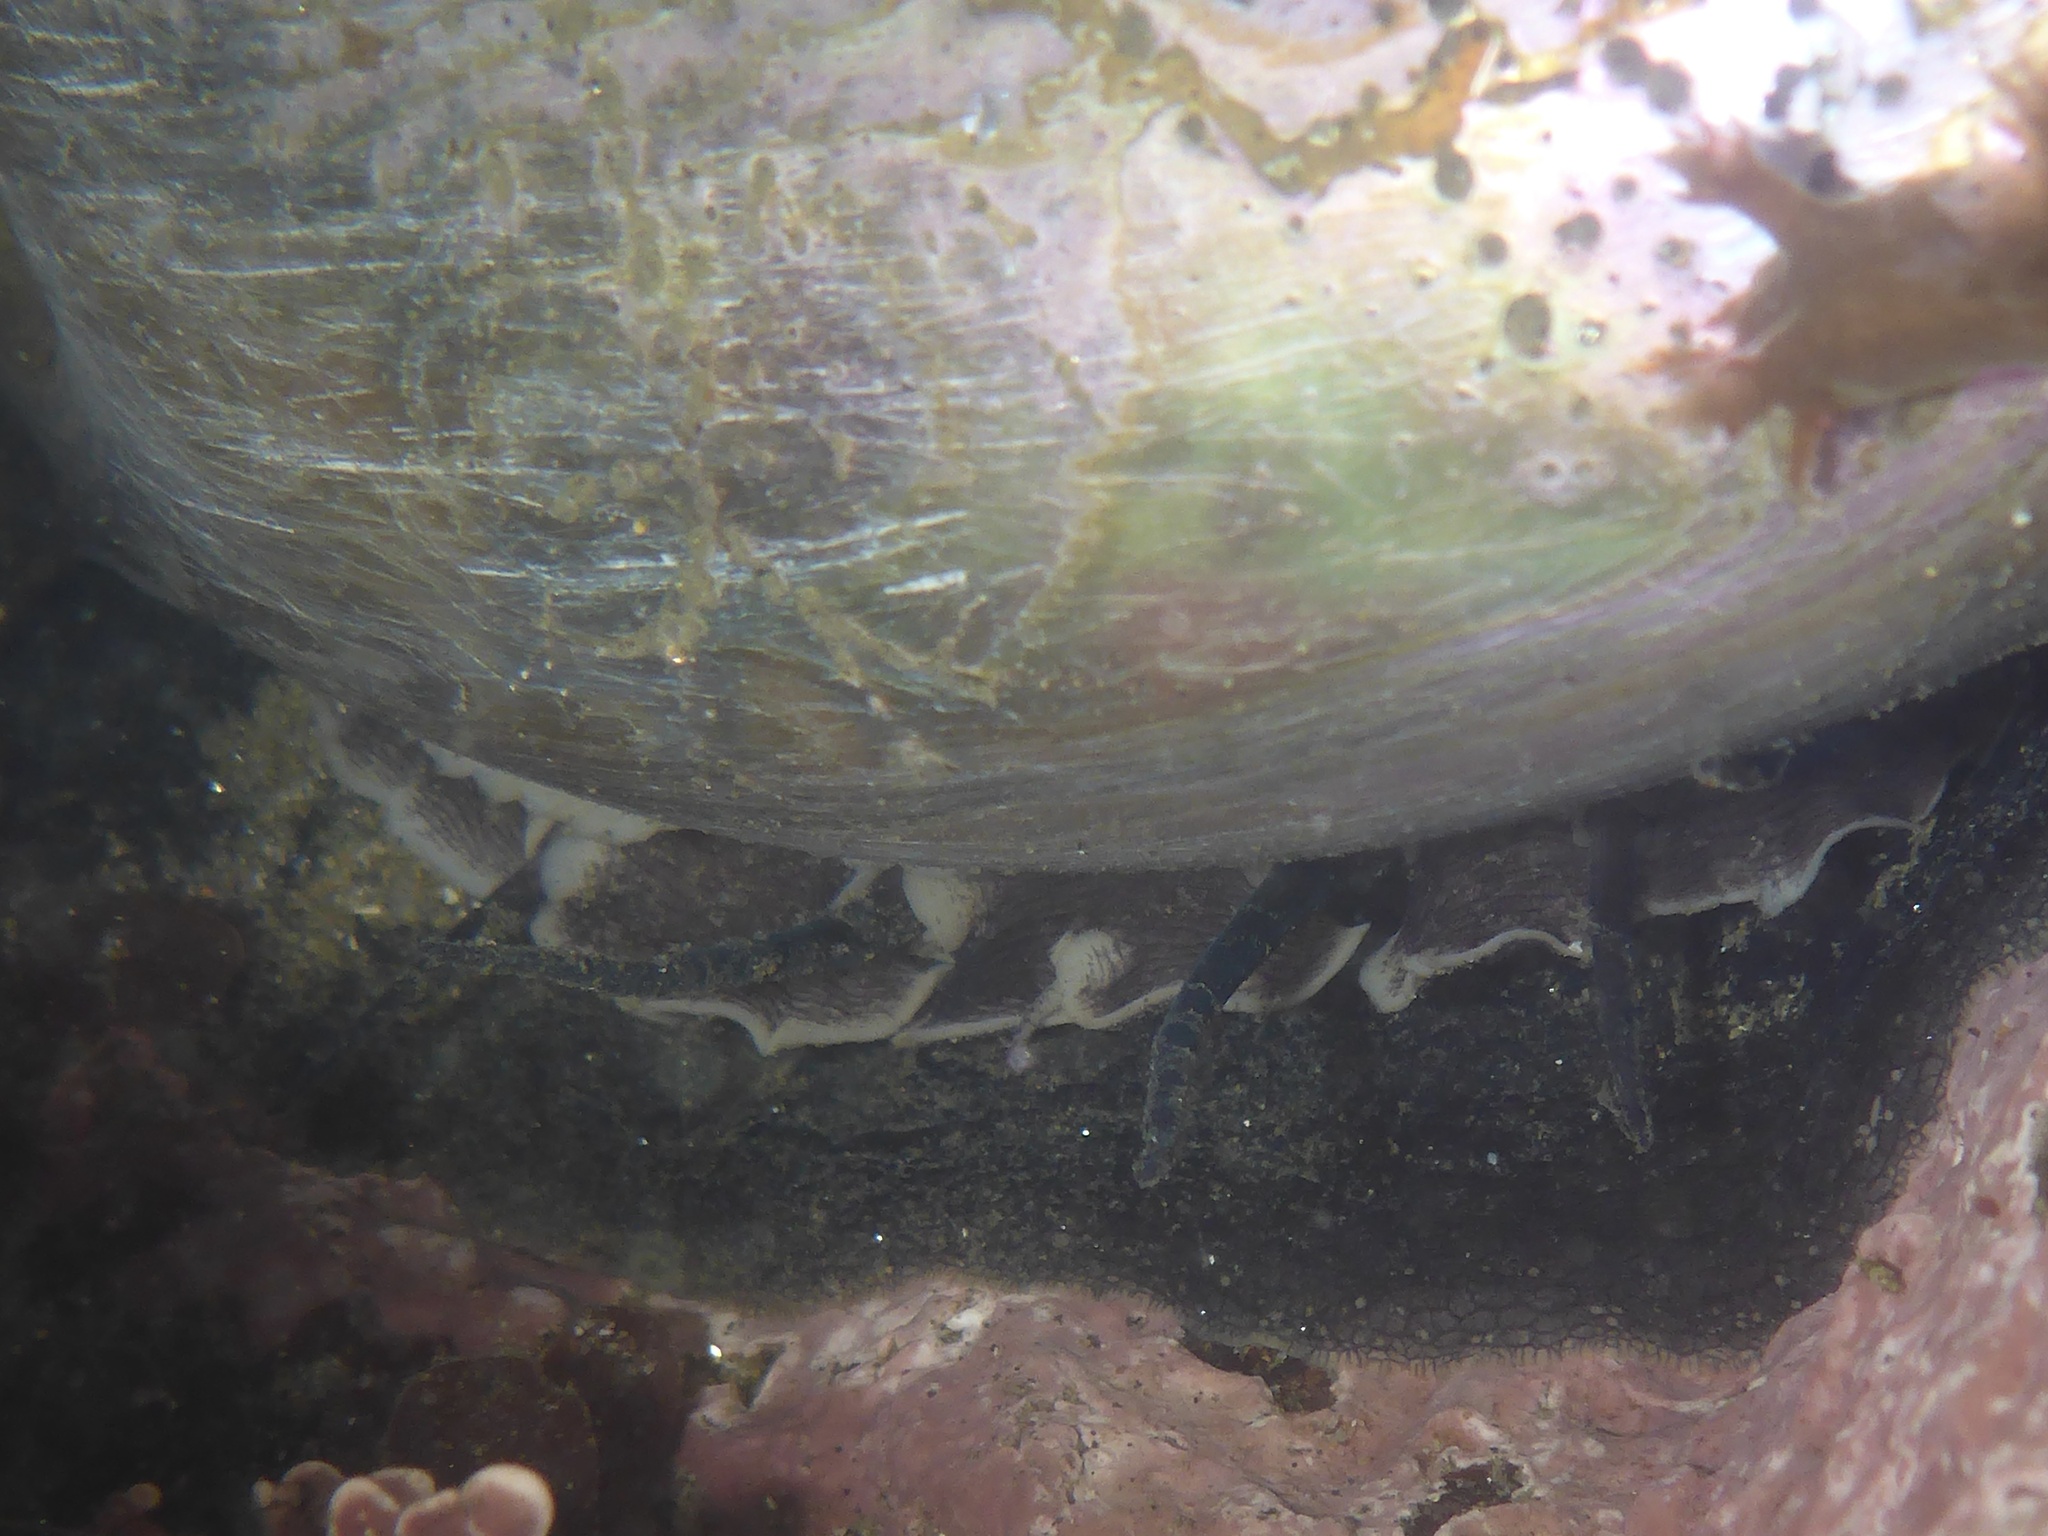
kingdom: Animalia
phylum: Mollusca
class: Gastropoda
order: Lepetellida
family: Haliotidae
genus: Haliotis
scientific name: Haliotis rufescens
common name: Red abalone
